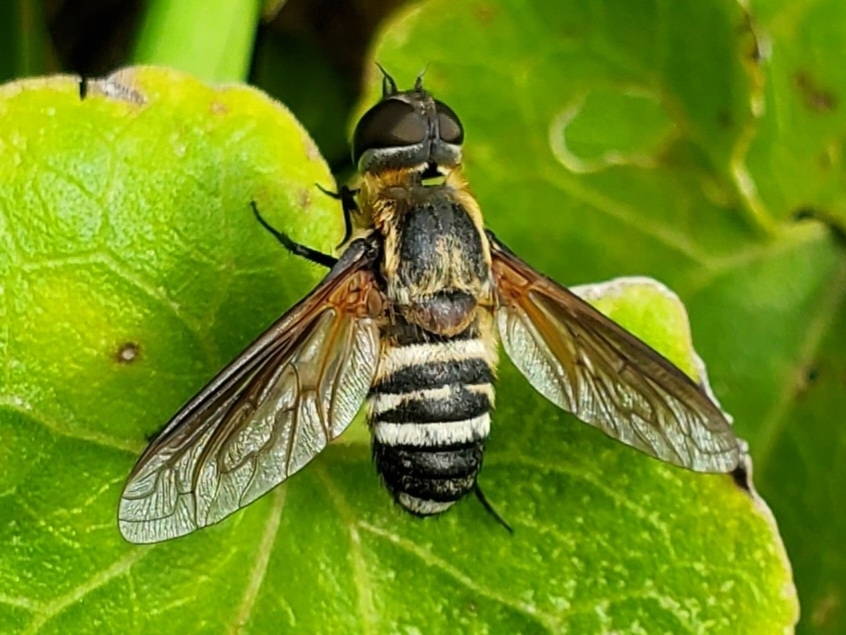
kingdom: Animalia
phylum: Arthropoda
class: Insecta
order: Diptera
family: Bombyliidae
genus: Exoprosopa
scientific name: Exoprosopa fasciata
